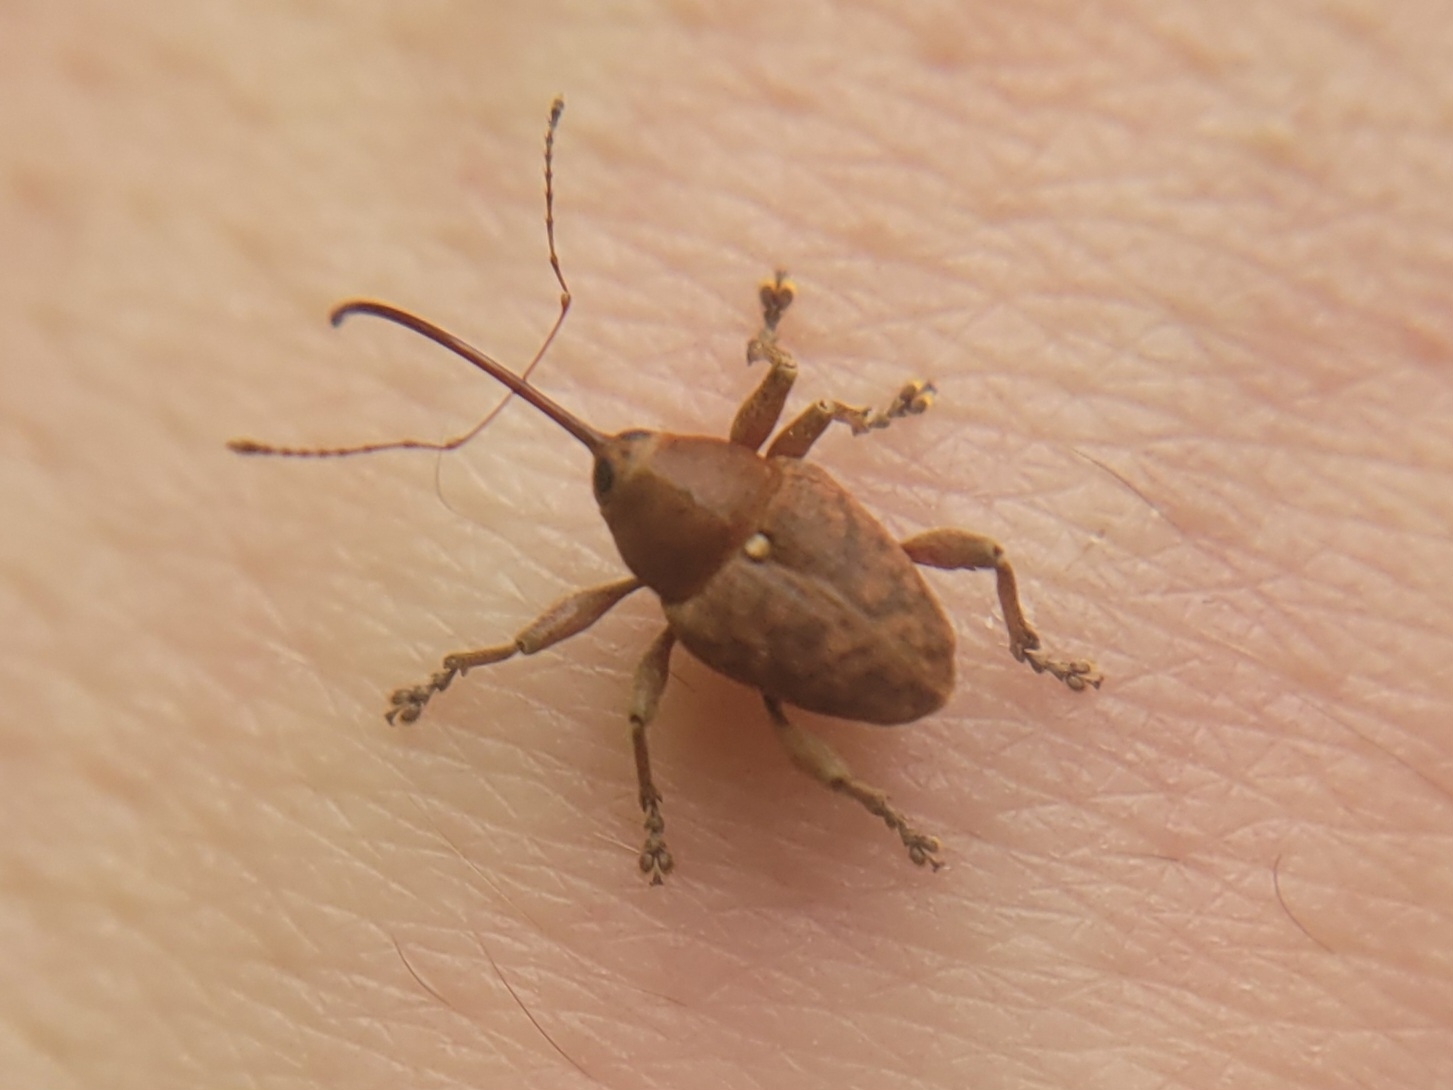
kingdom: Animalia
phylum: Arthropoda
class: Insecta
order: Coleoptera
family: Curculionidae
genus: Curculio
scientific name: Curculio glandium
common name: Acorn weevil
